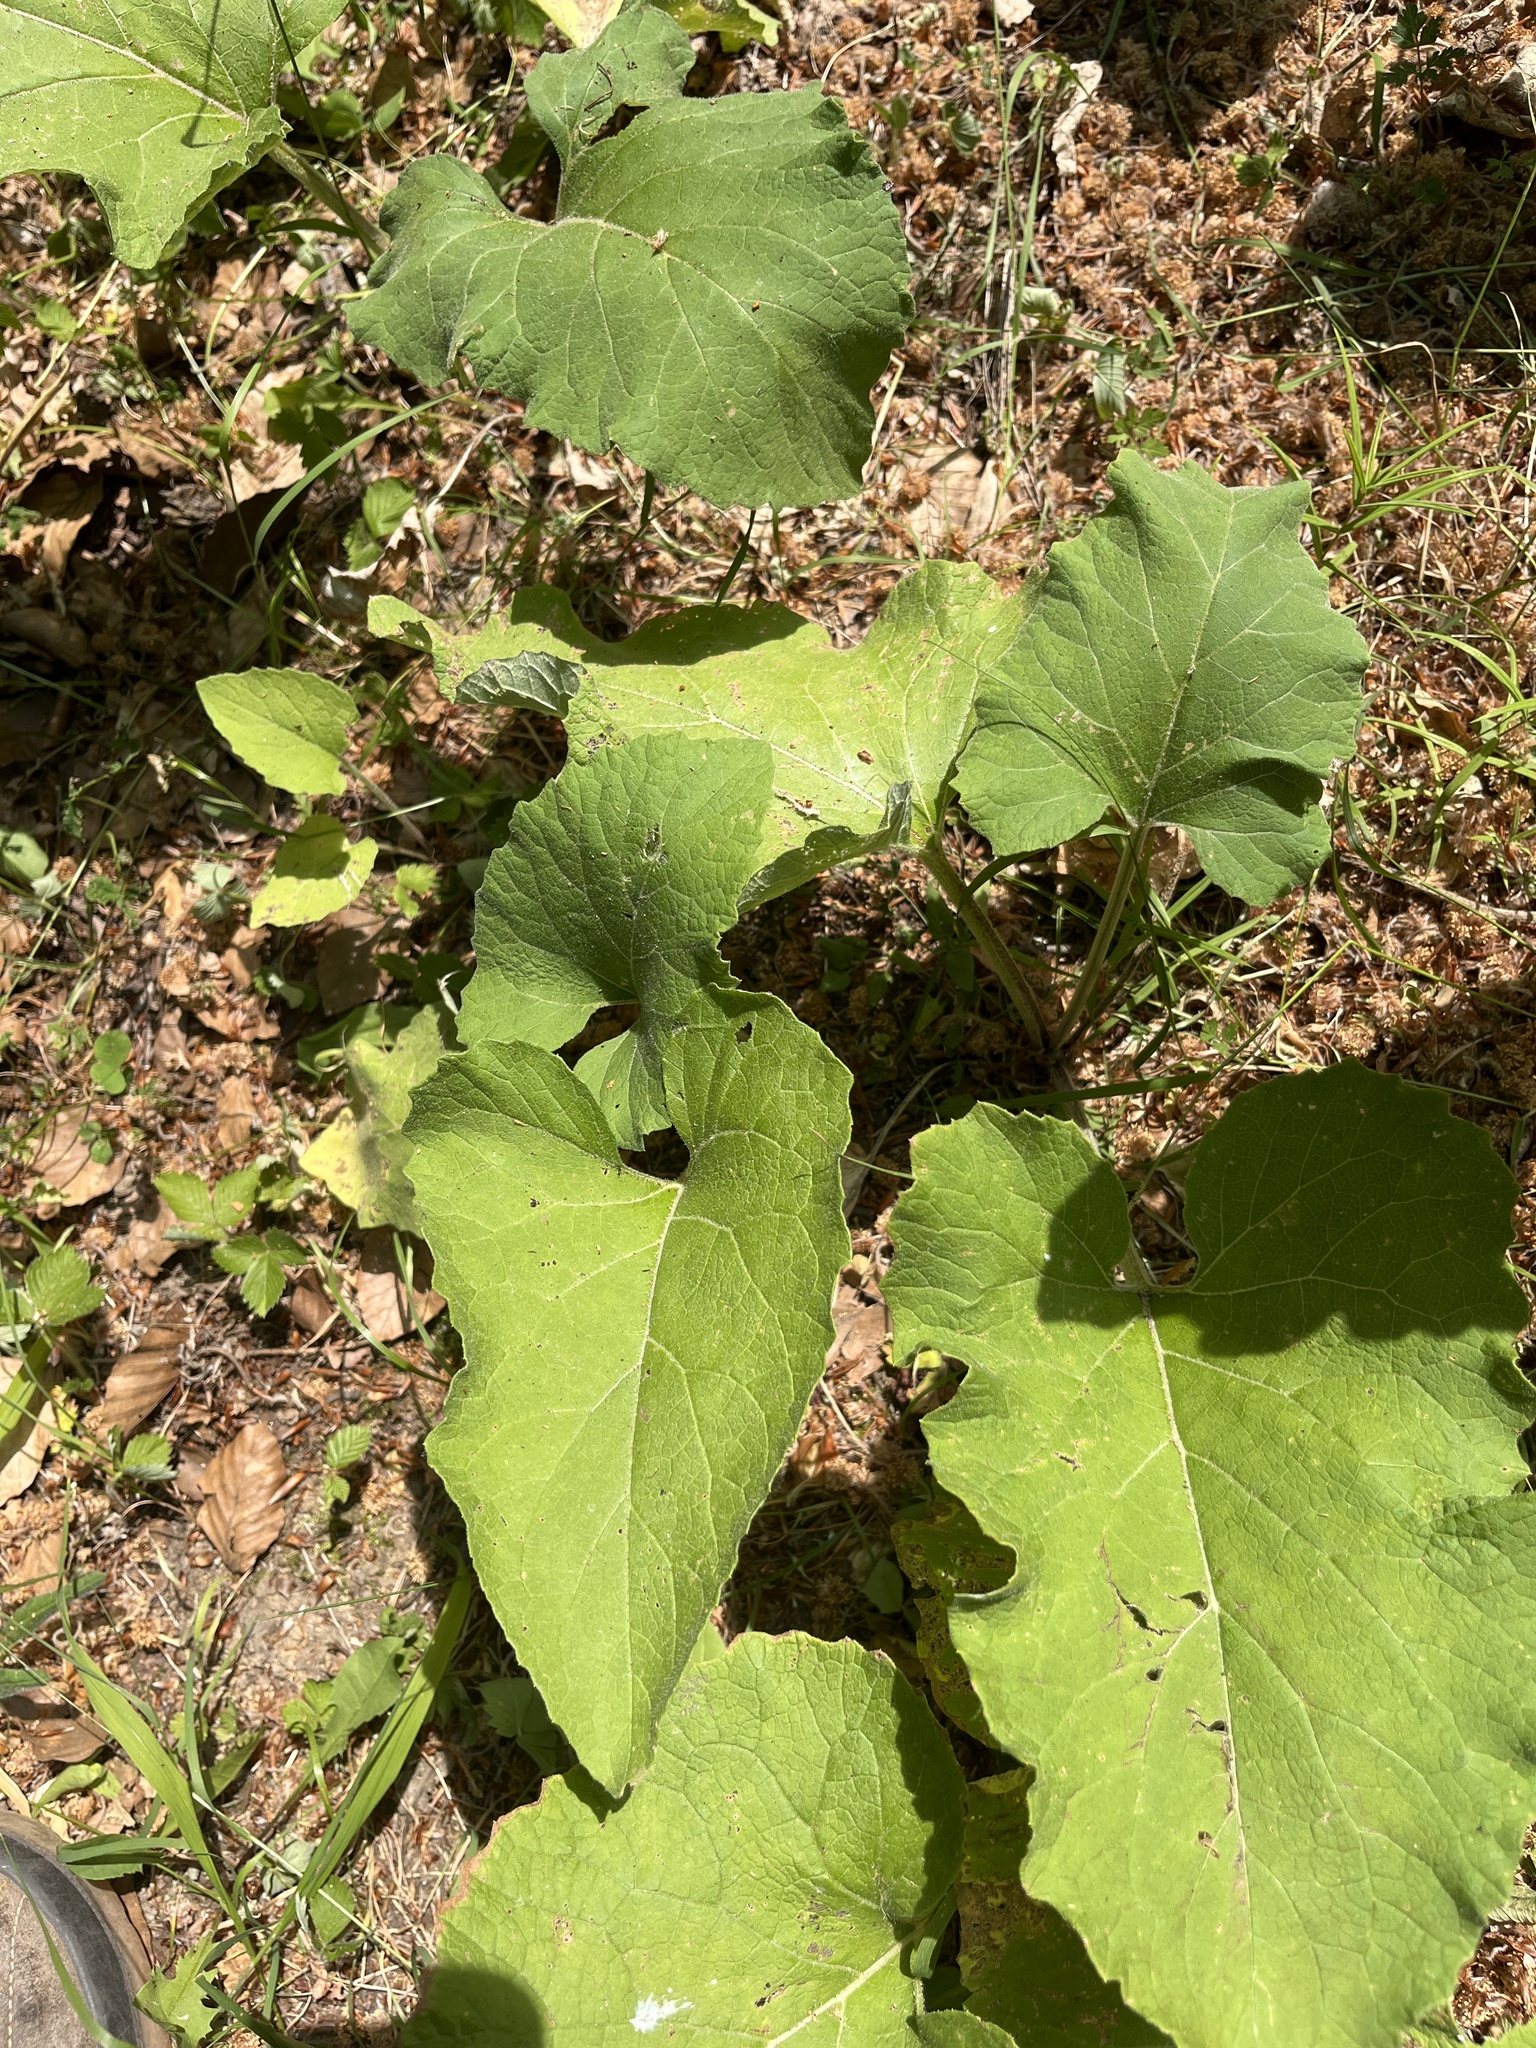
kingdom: Plantae
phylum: Tracheophyta
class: Magnoliopsida
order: Asterales
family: Asteraceae
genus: Arctium
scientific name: Arctium minus
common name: Lesser burdock
